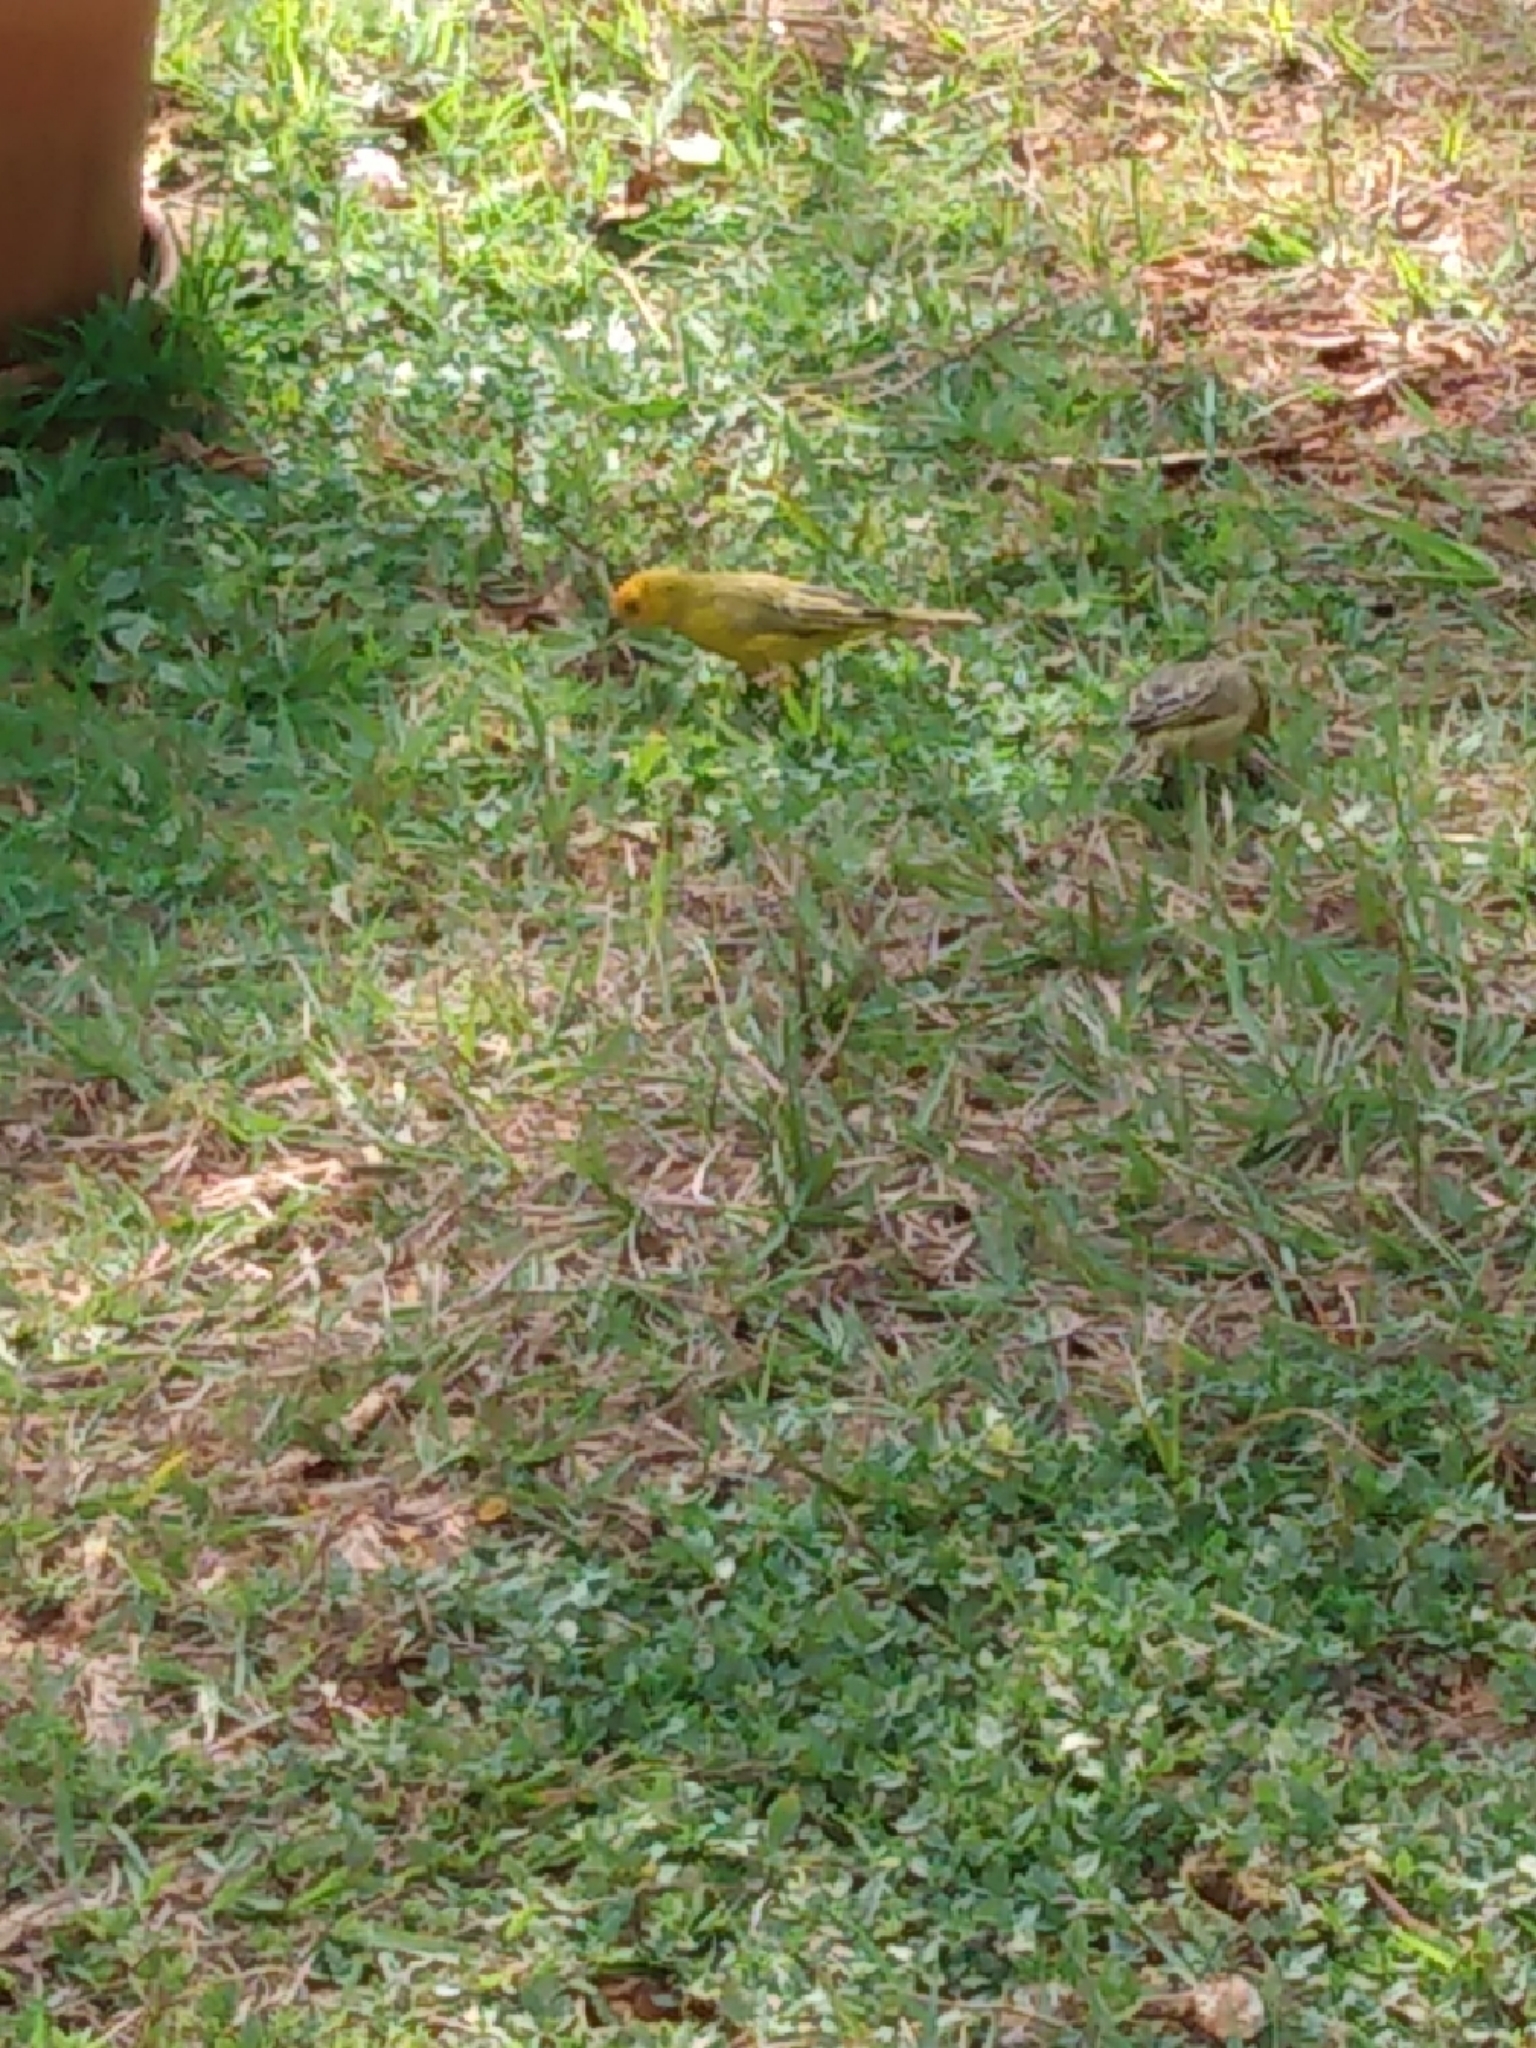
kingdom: Animalia
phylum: Chordata
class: Aves
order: Passeriformes
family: Thraupidae
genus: Sicalis
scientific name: Sicalis flaveola
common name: Saffron finch
